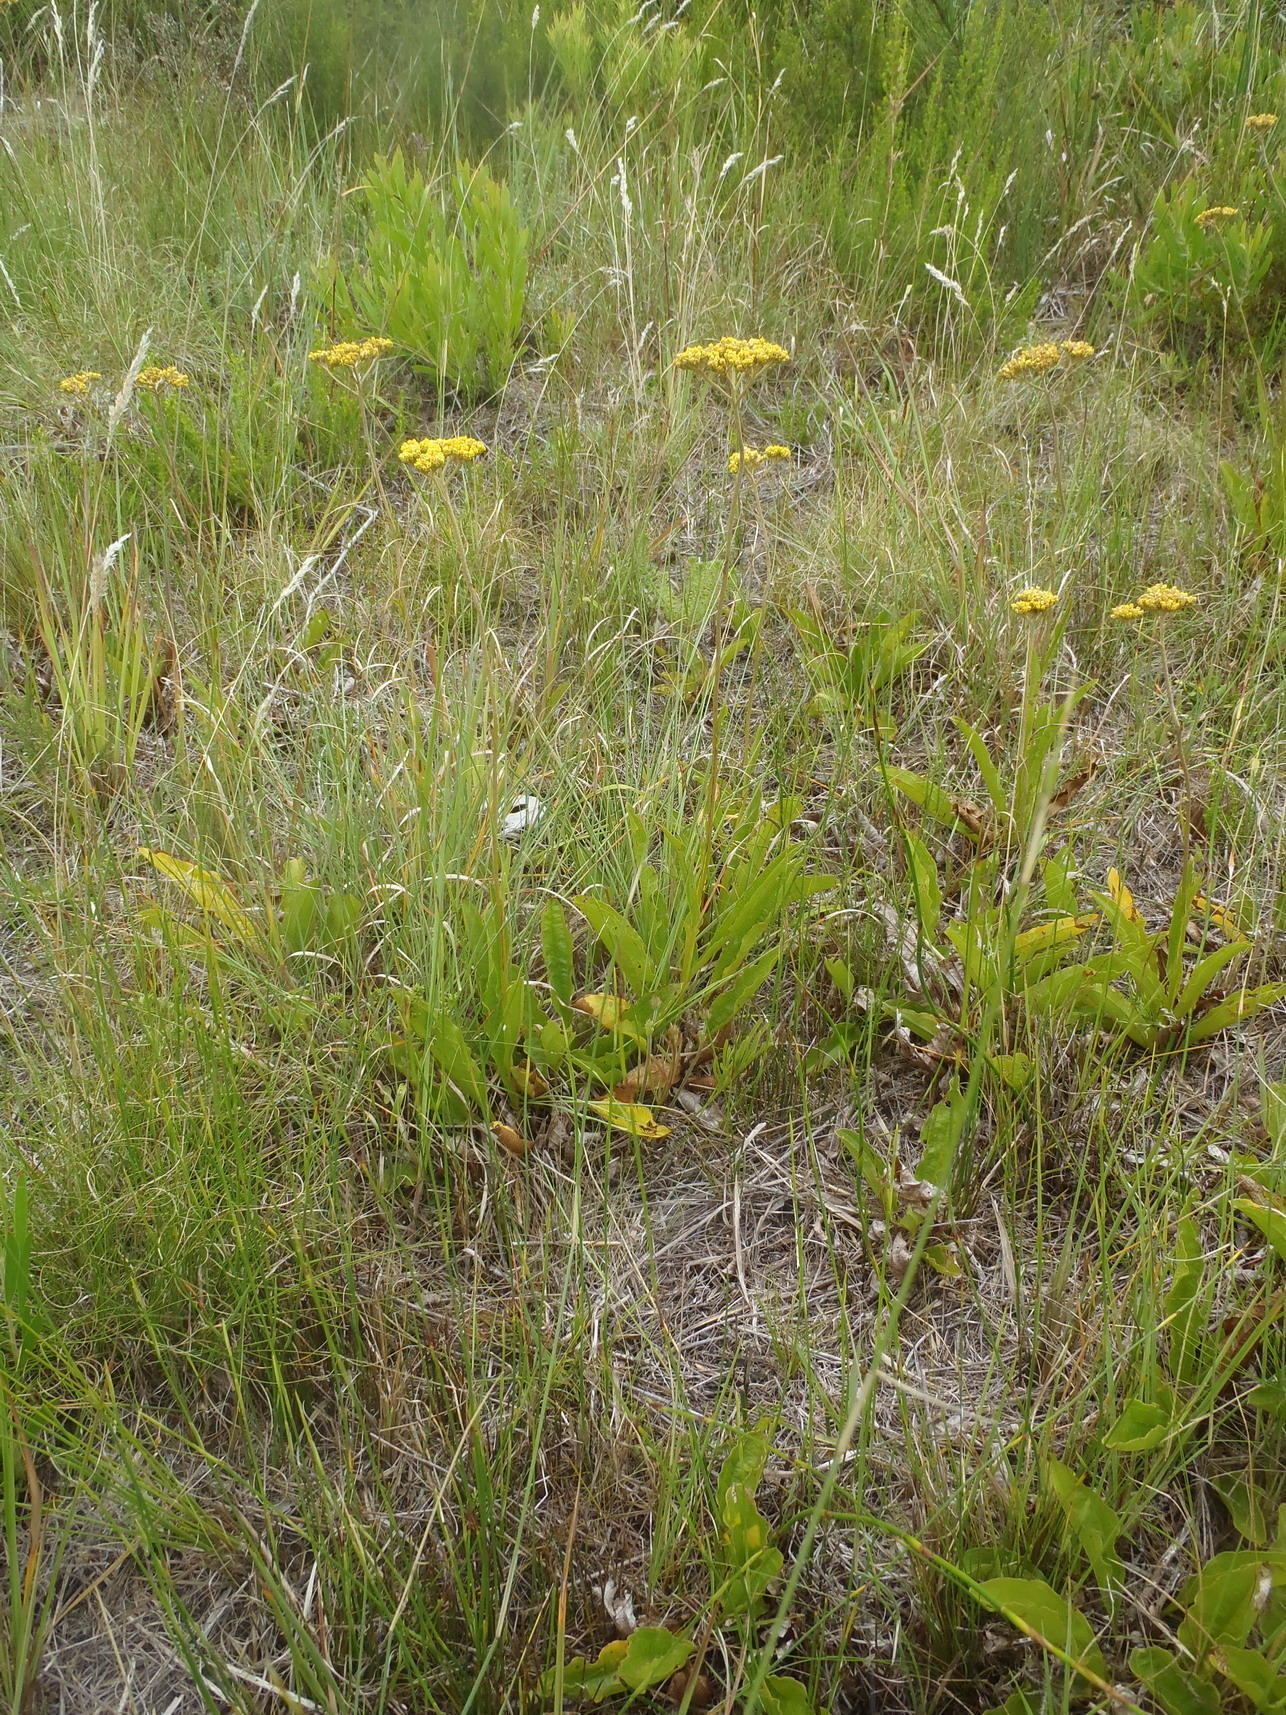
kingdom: Plantae
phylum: Tracheophyta
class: Magnoliopsida
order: Asterales
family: Asteraceae
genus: Helichrysum
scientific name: Helichrysum nudifolium
